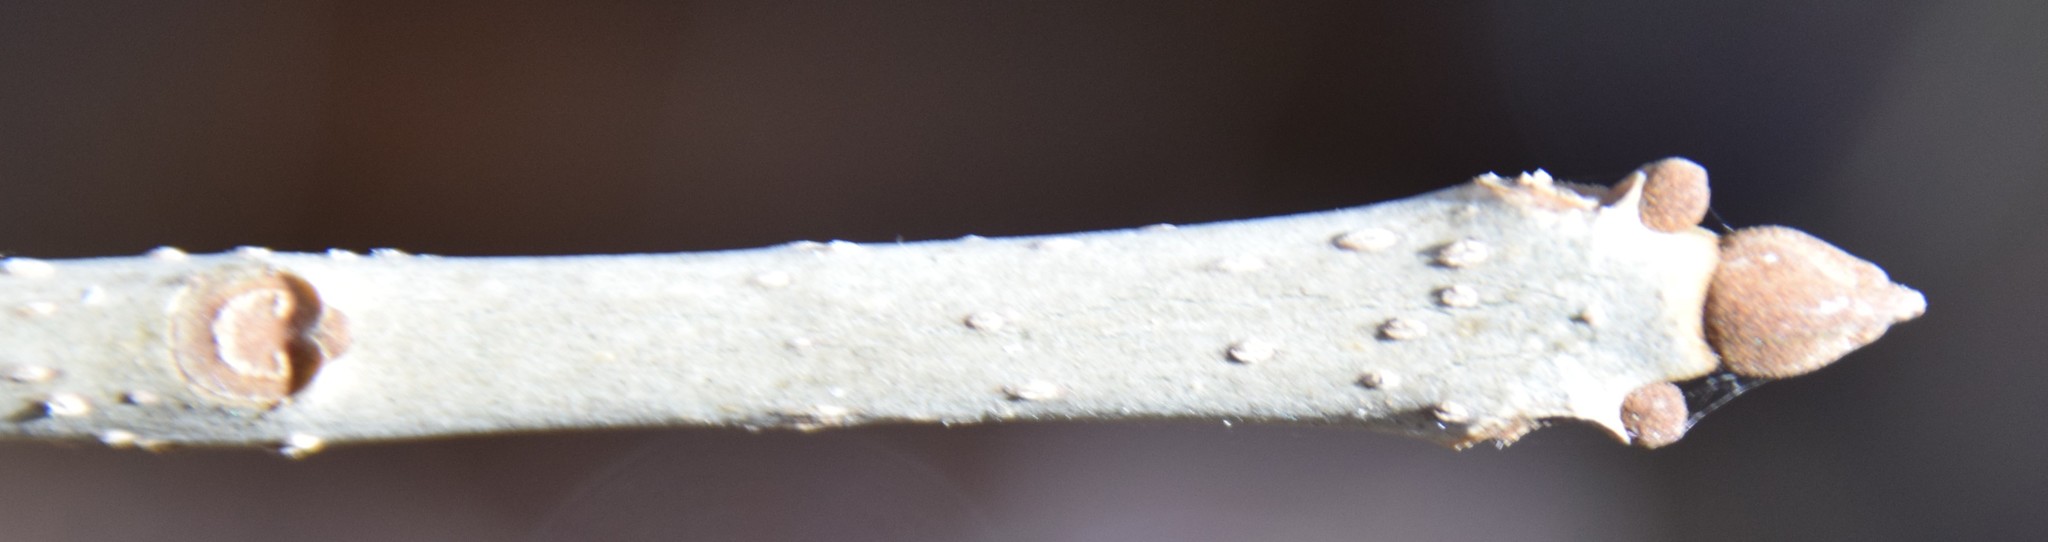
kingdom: Plantae
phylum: Tracheophyta
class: Magnoliopsida
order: Lamiales
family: Oleaceae
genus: Fraxinus
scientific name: Fraxinus nigra
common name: Black ash
